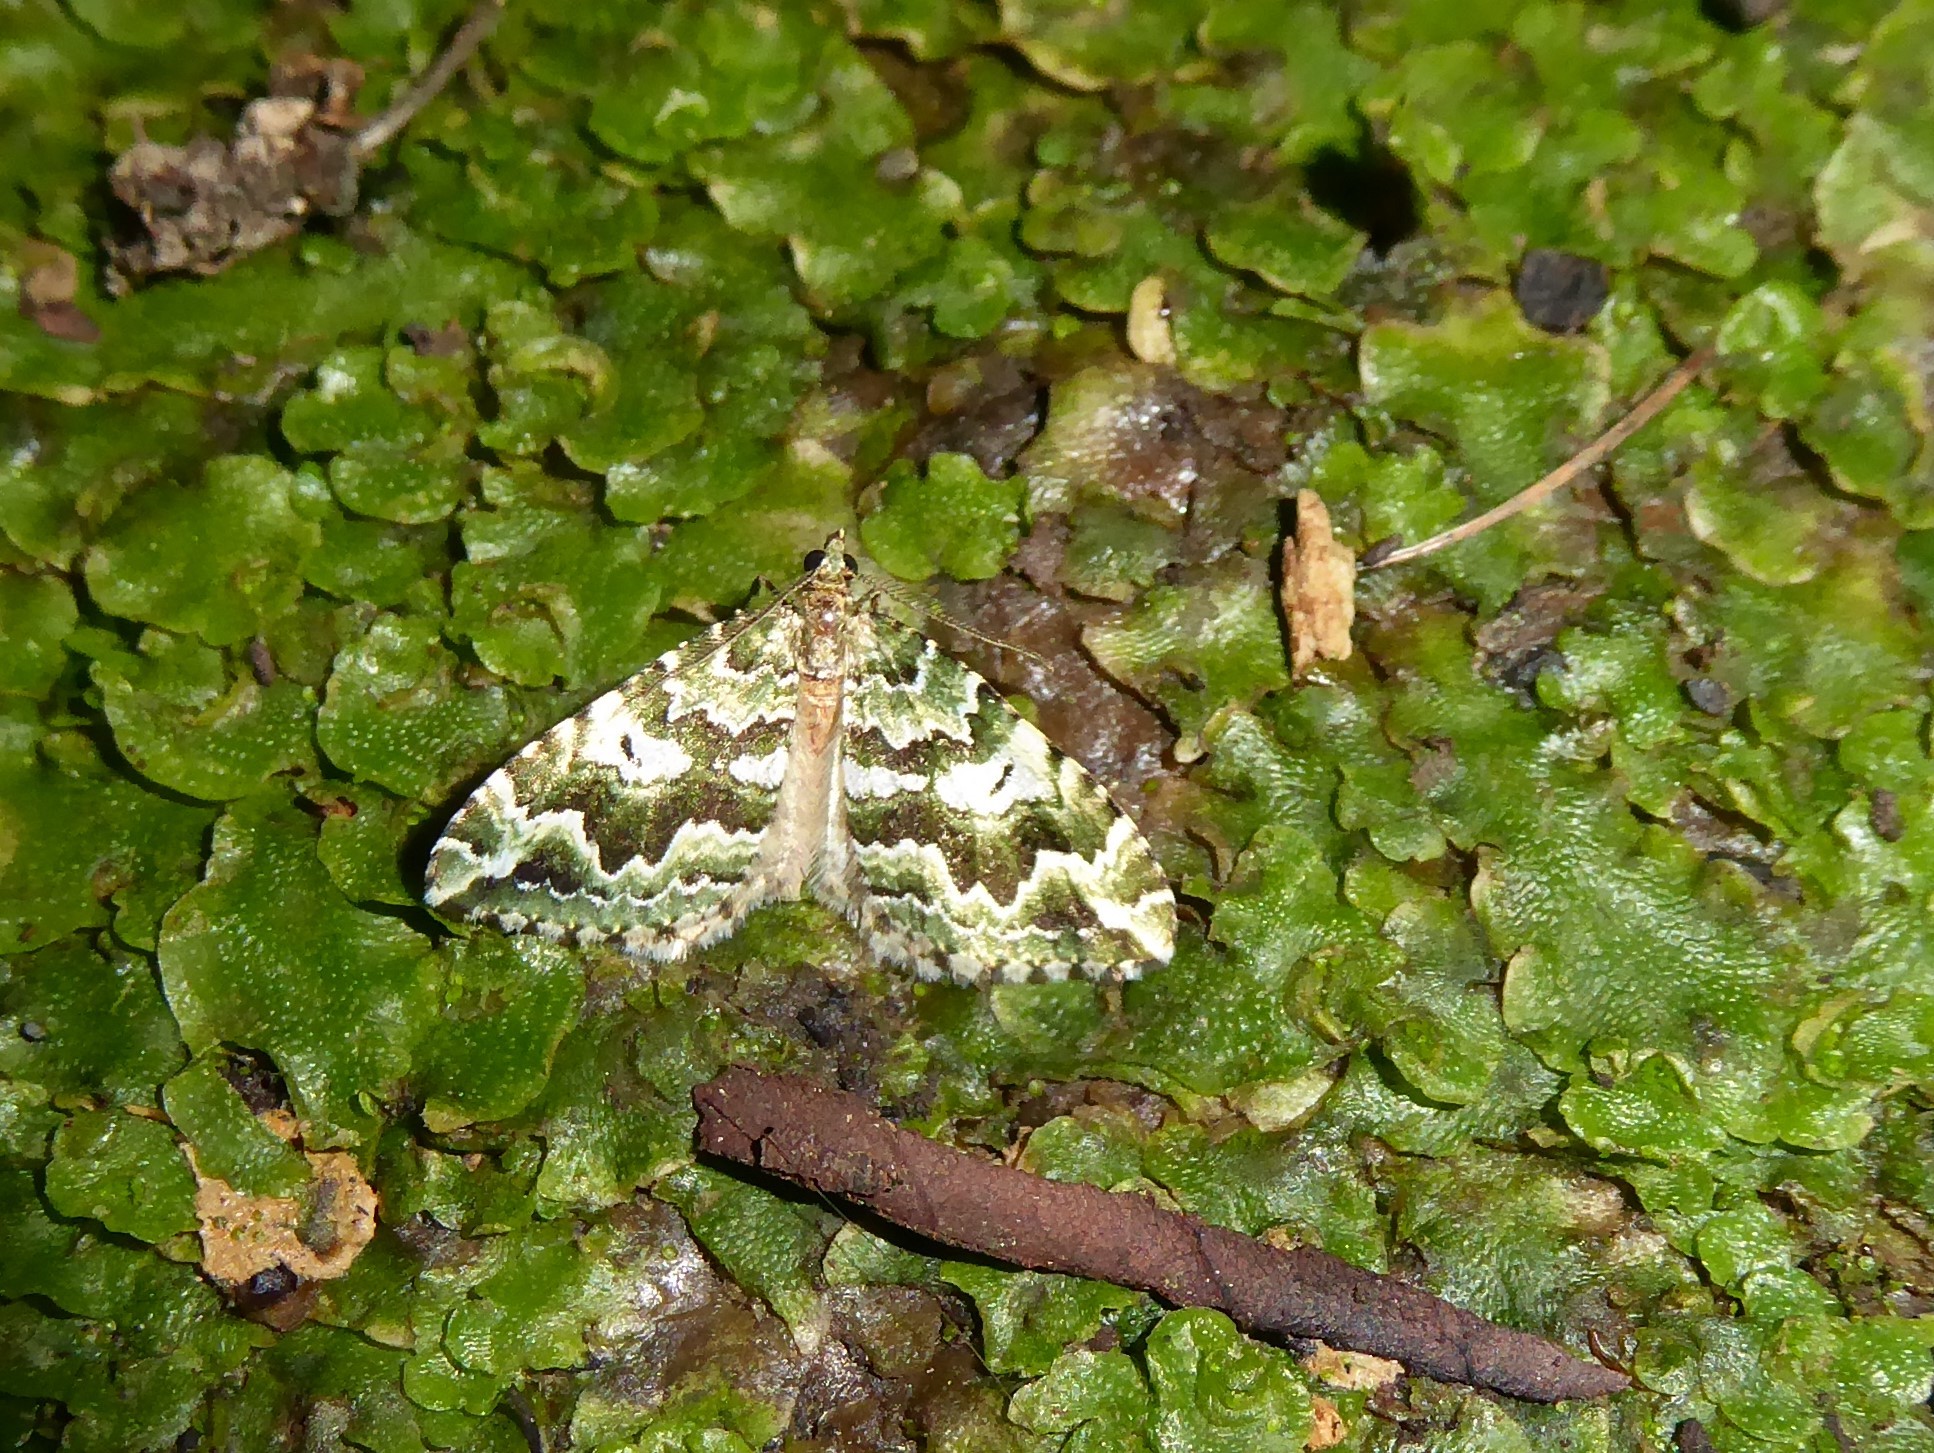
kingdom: Animalia
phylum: Arthropoda
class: Insecta
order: Lepidoptera
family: Geometridae
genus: Asaphodes
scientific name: Asaphodes beata
